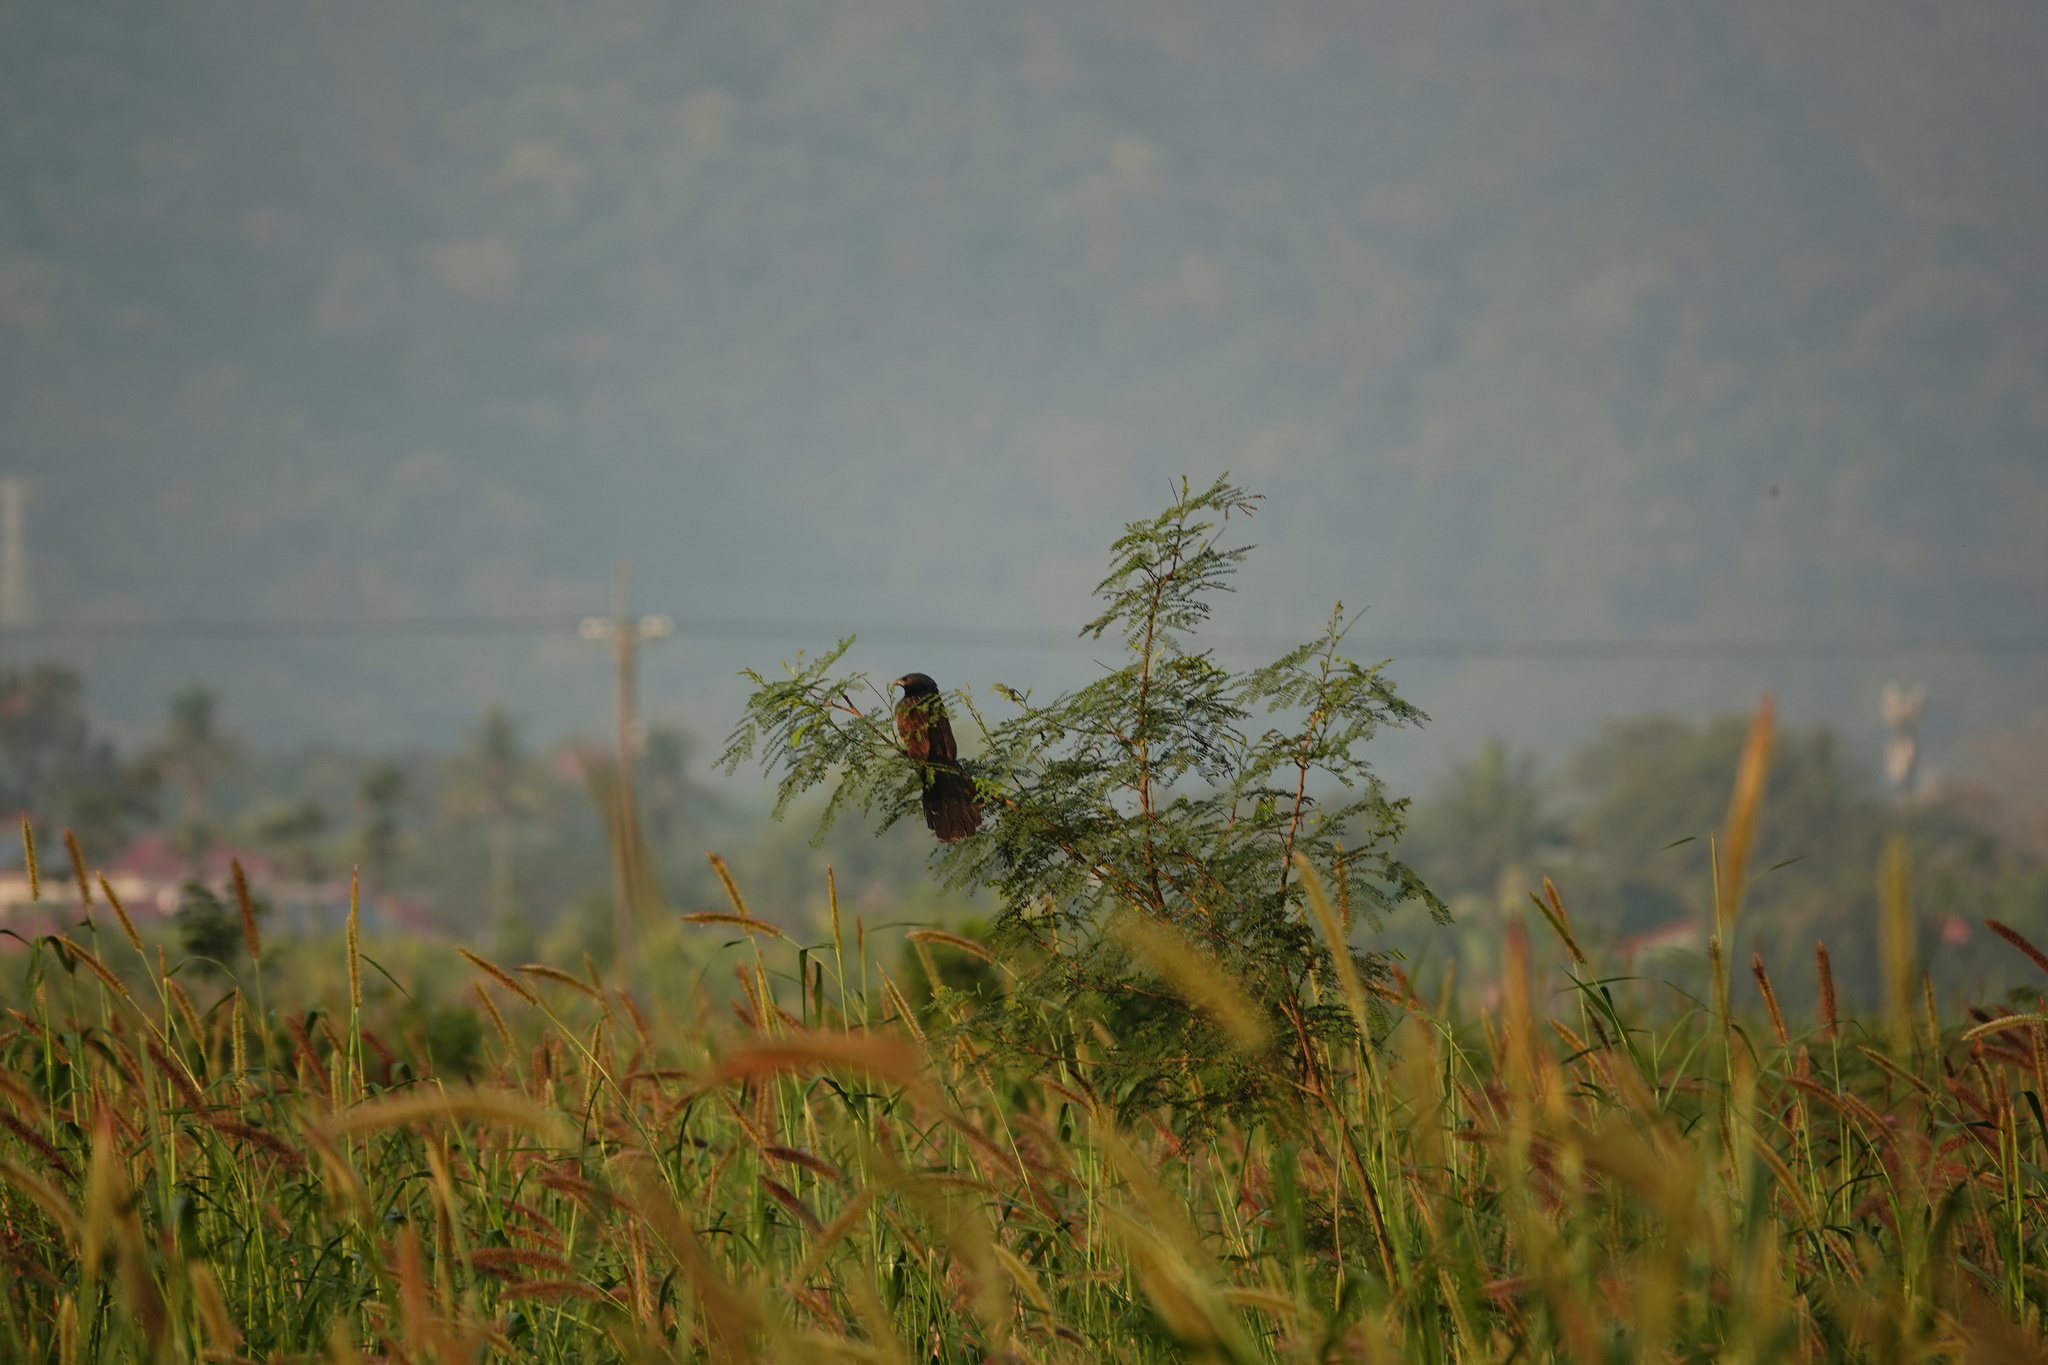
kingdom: Animalia
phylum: Chordata
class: Aves
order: Cuculiformes
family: Cuculidae
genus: Centropus
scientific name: Centropus bengalensis
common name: Lesser coucal
